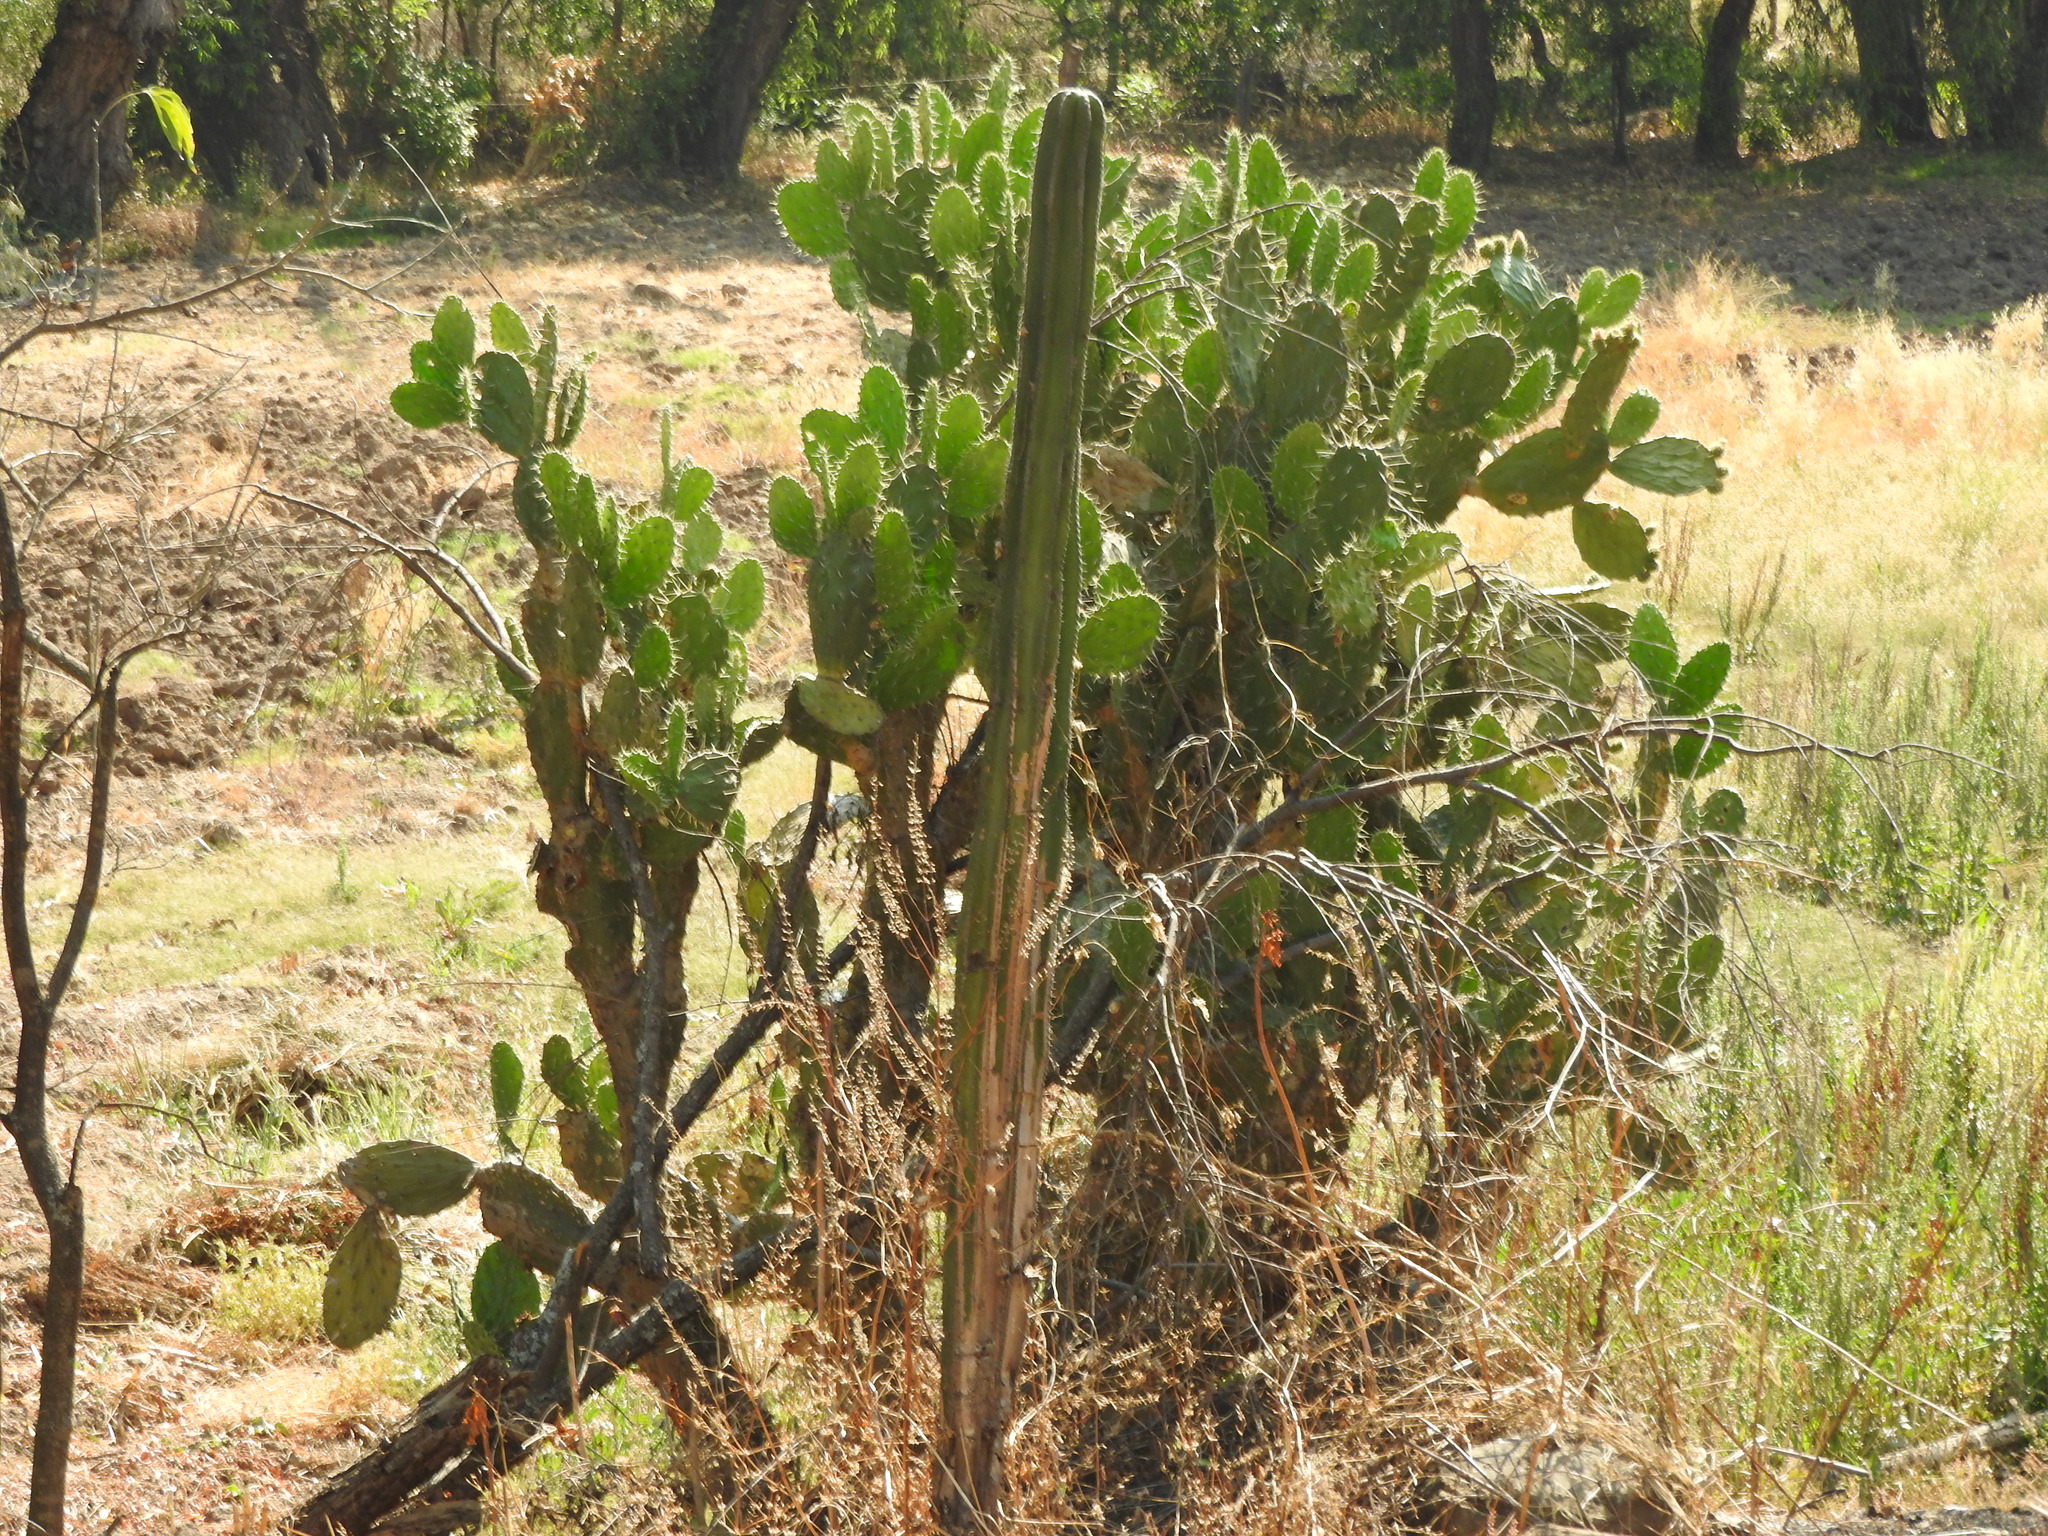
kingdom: Plantae
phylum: Tracheophyta
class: Magnoliopsida
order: Caryophyllales
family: Cactaceae
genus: Marginatocereus
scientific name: Marginatocereus marginatus
